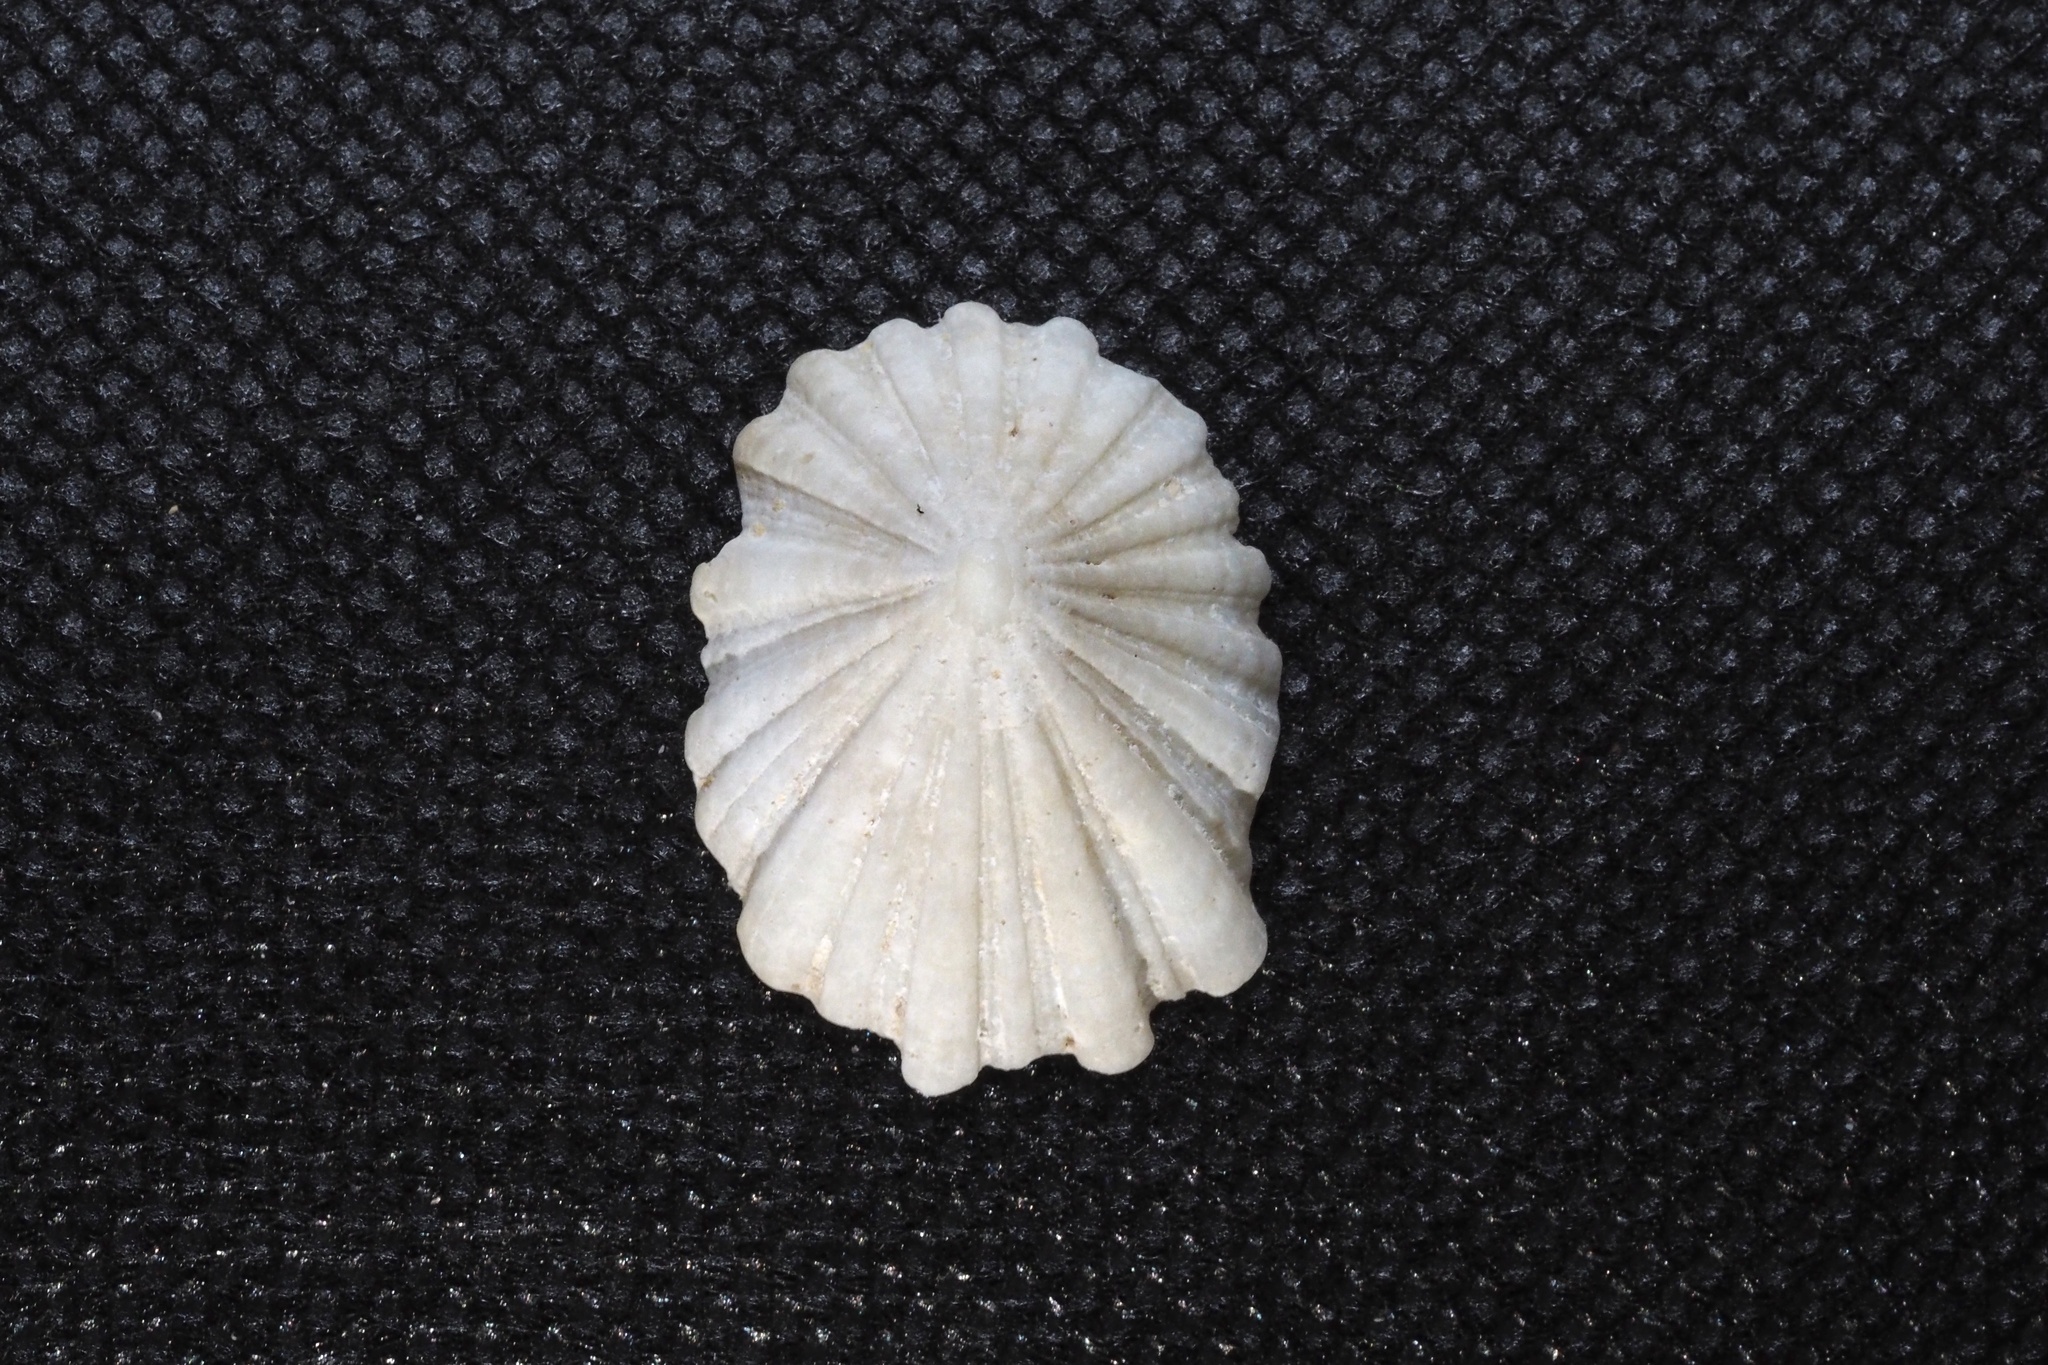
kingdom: Animalia
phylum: Mollusca
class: Gastropoda
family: Lottiidae
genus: Niveotectura
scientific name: Niveotectura pallida
